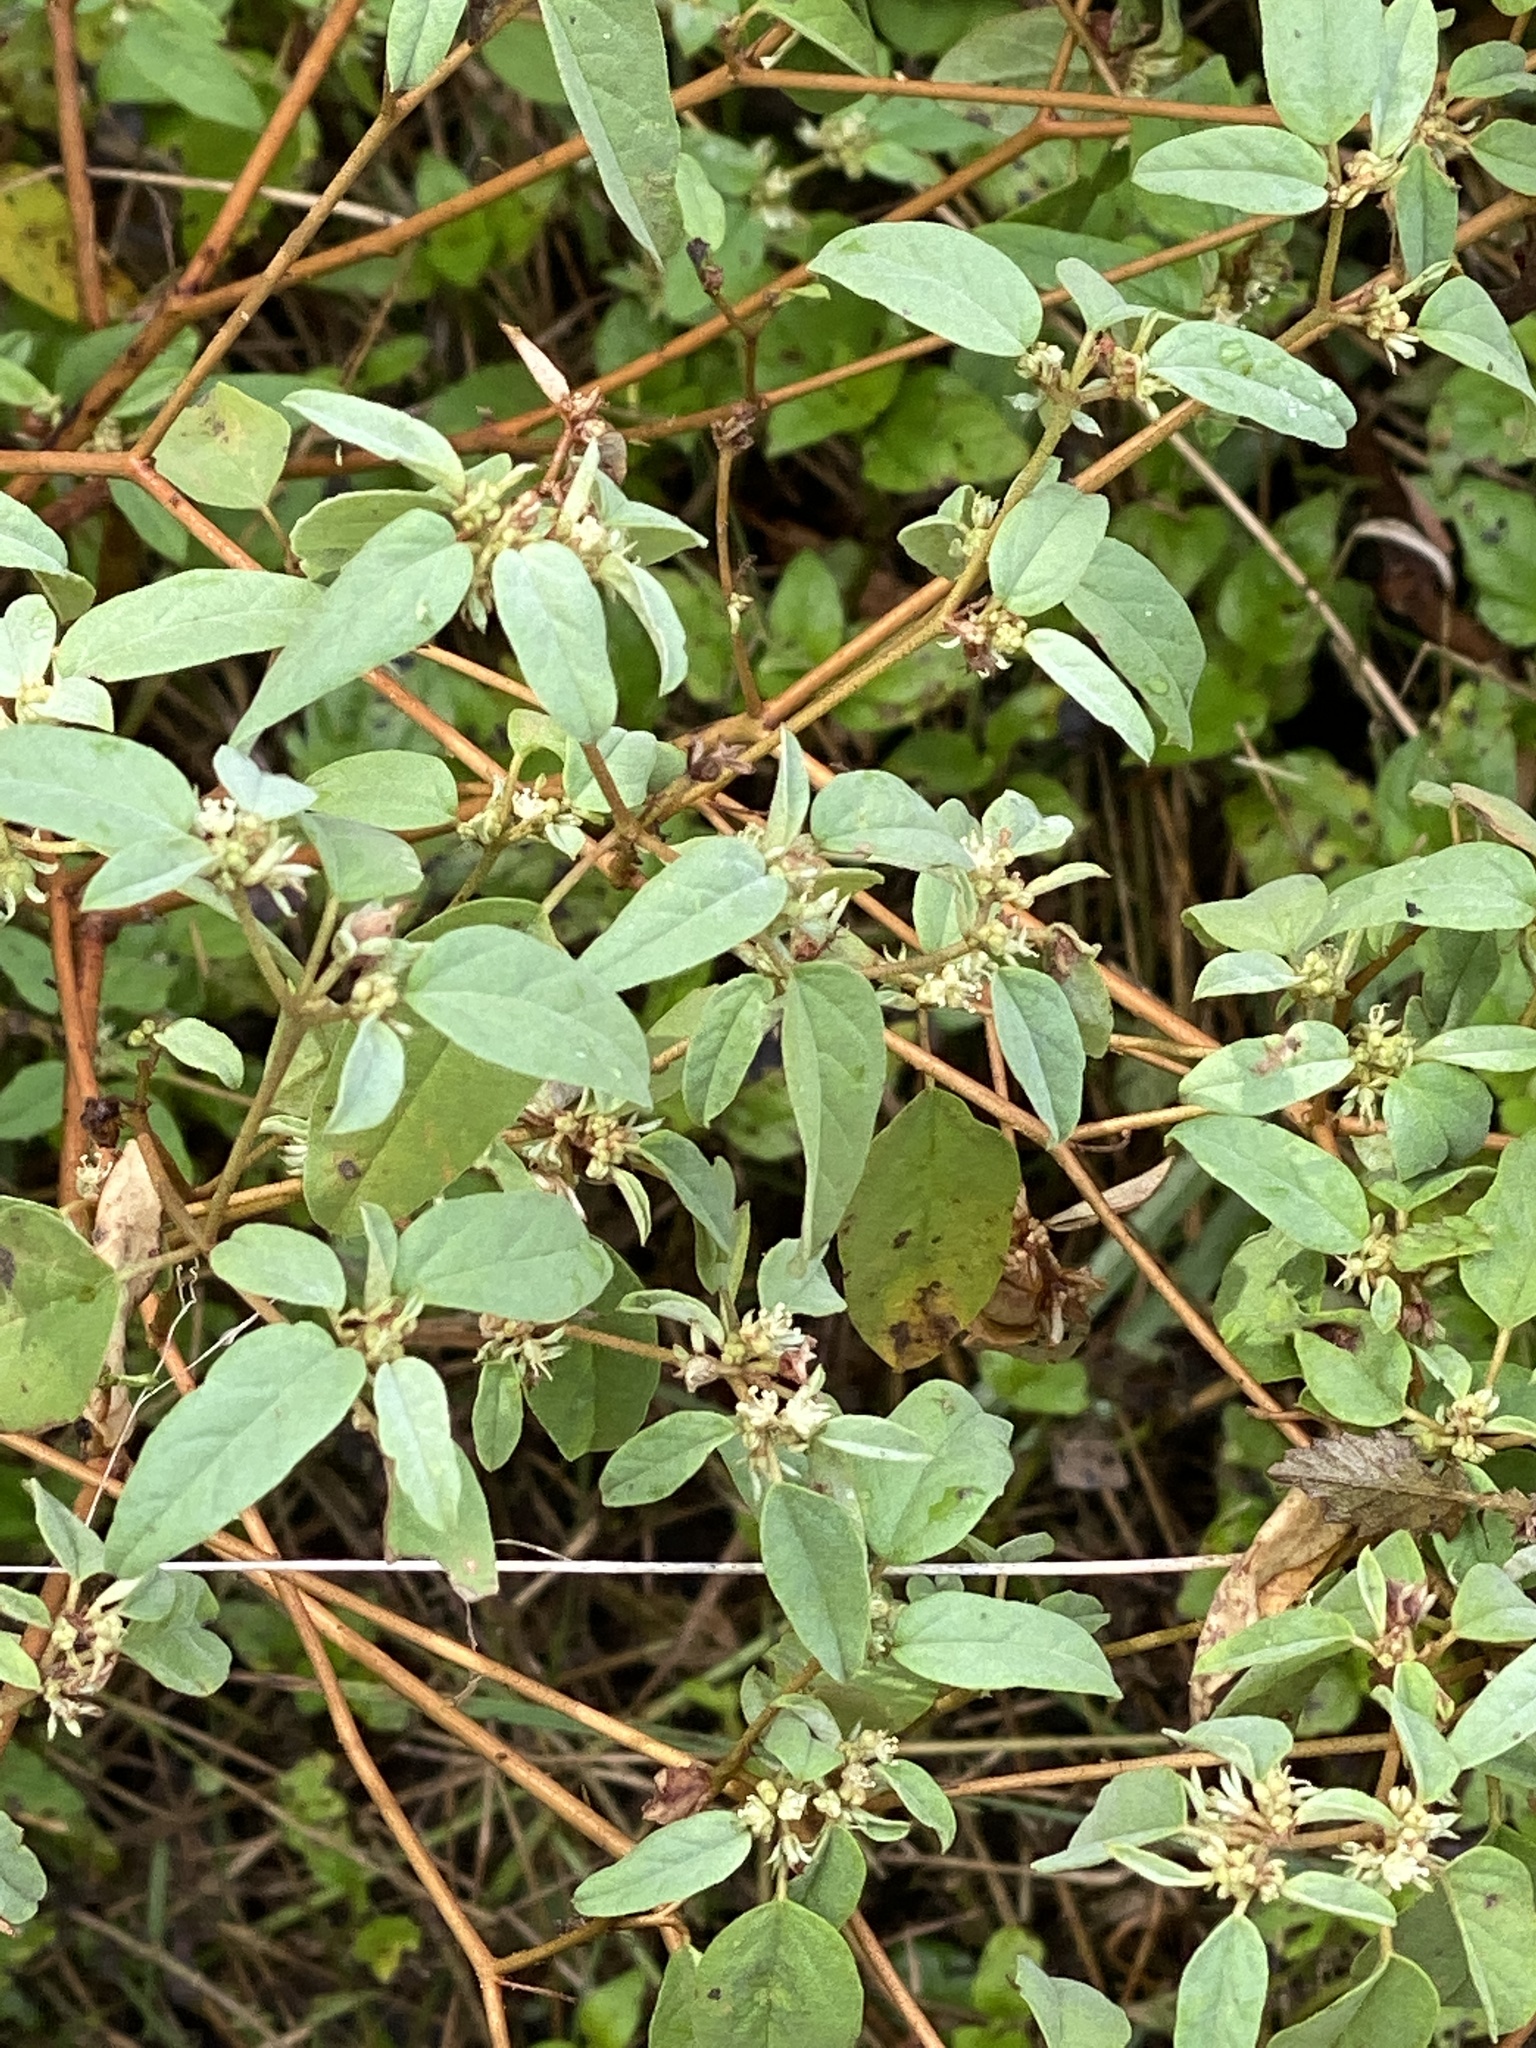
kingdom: Plantae
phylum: Tracheophyta
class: Magnoliopsida
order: Malpighiales
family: Euphorbiaceae
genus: Croton
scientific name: Croton monanthogynus
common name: One-seed croton
